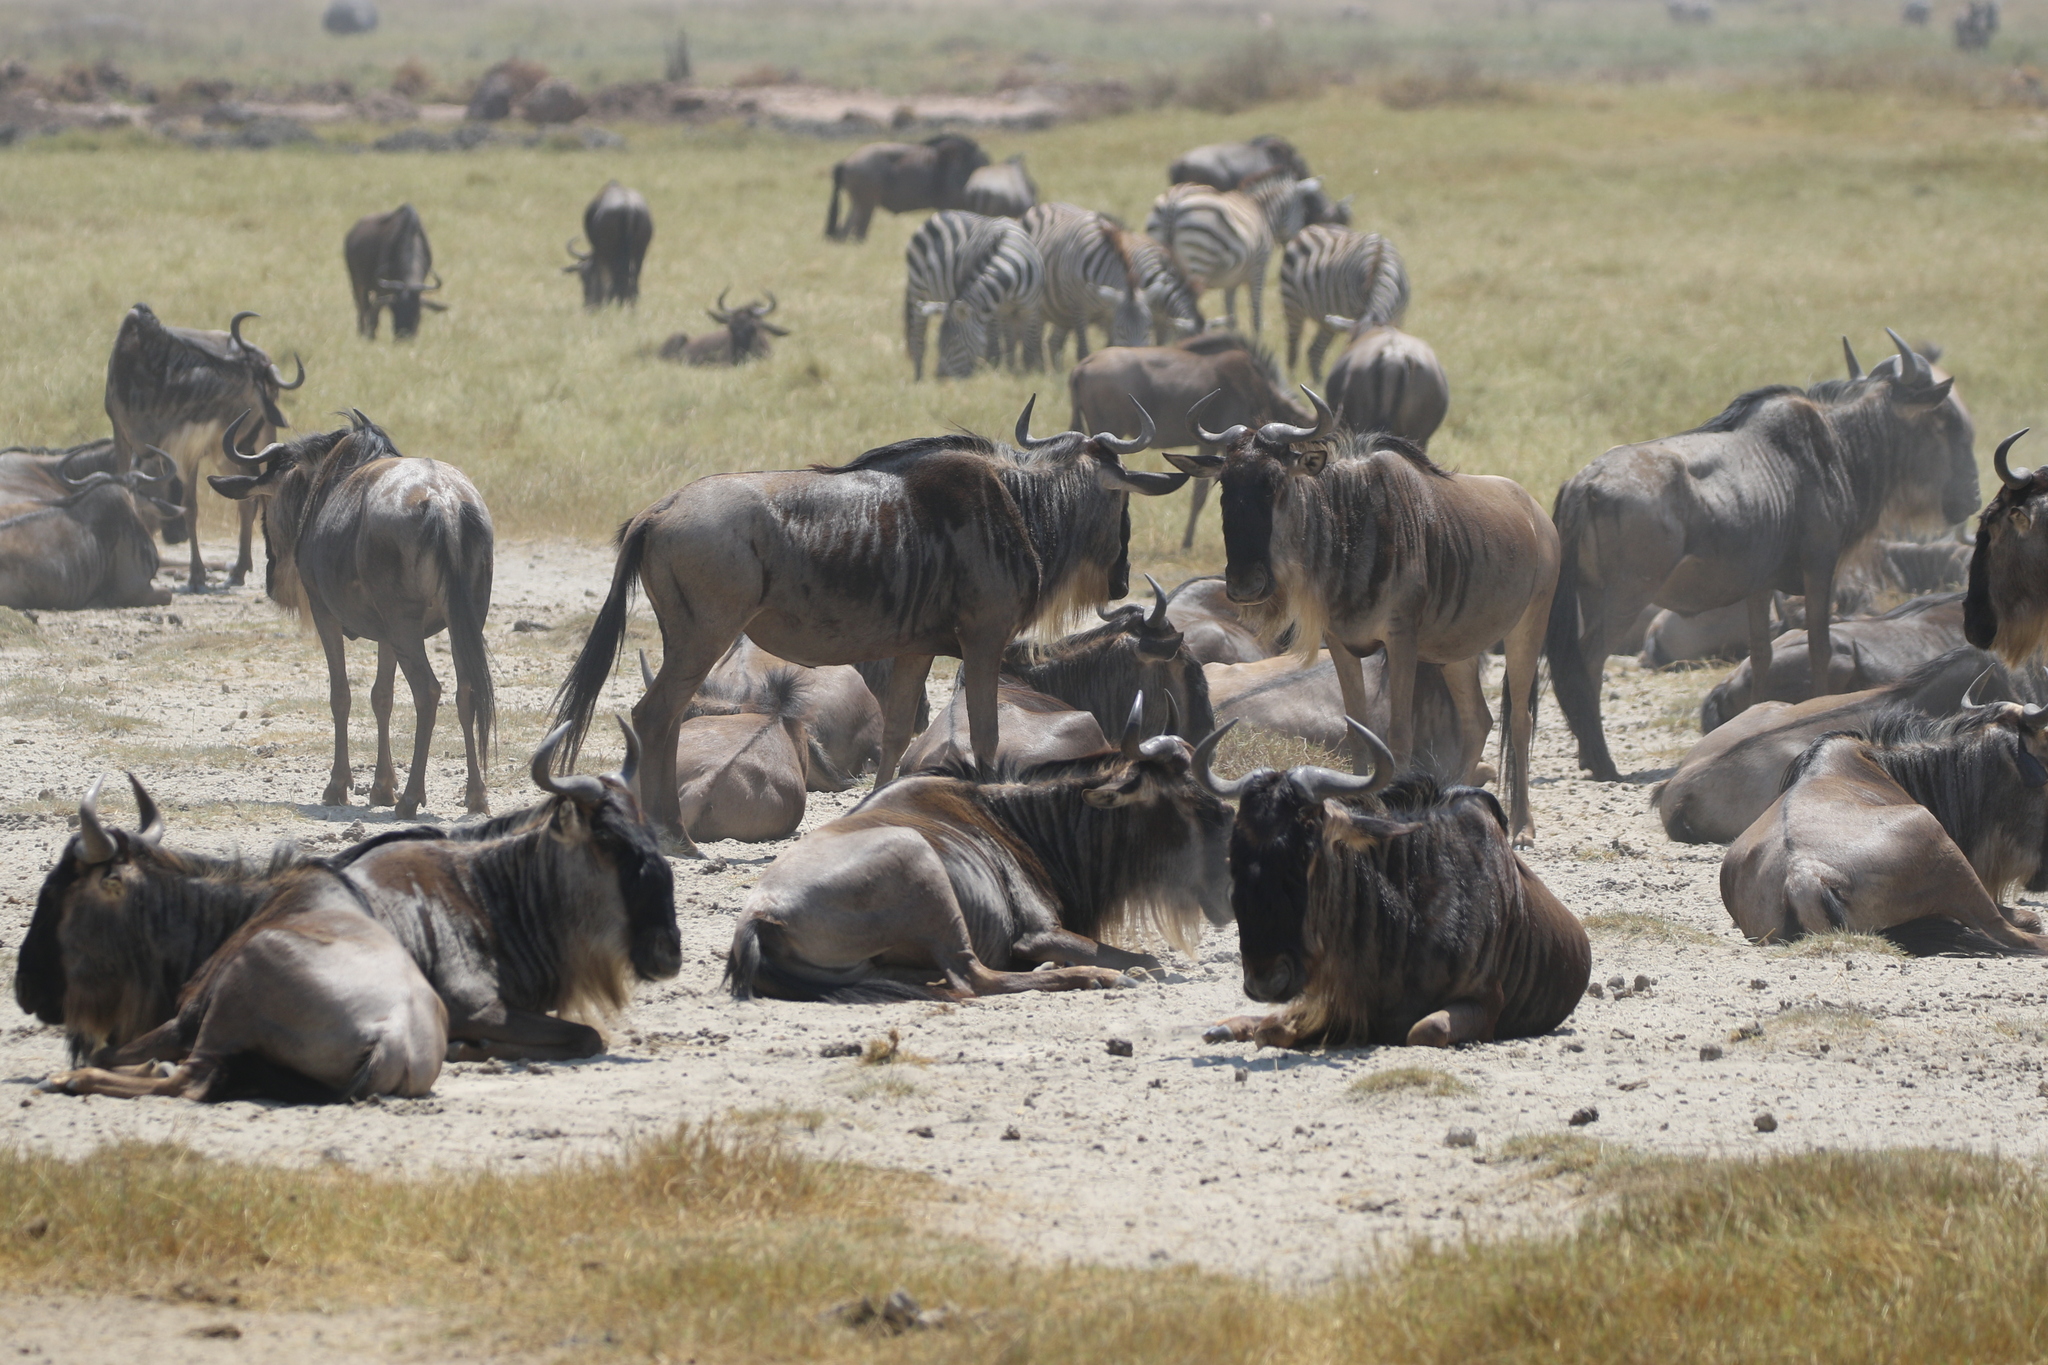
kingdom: Animalia
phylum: Chordata
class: Mammalia
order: Artiodactyla
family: Bovidae
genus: Connochaetes
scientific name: Connochaetes taurinus
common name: Blue wildebeest
